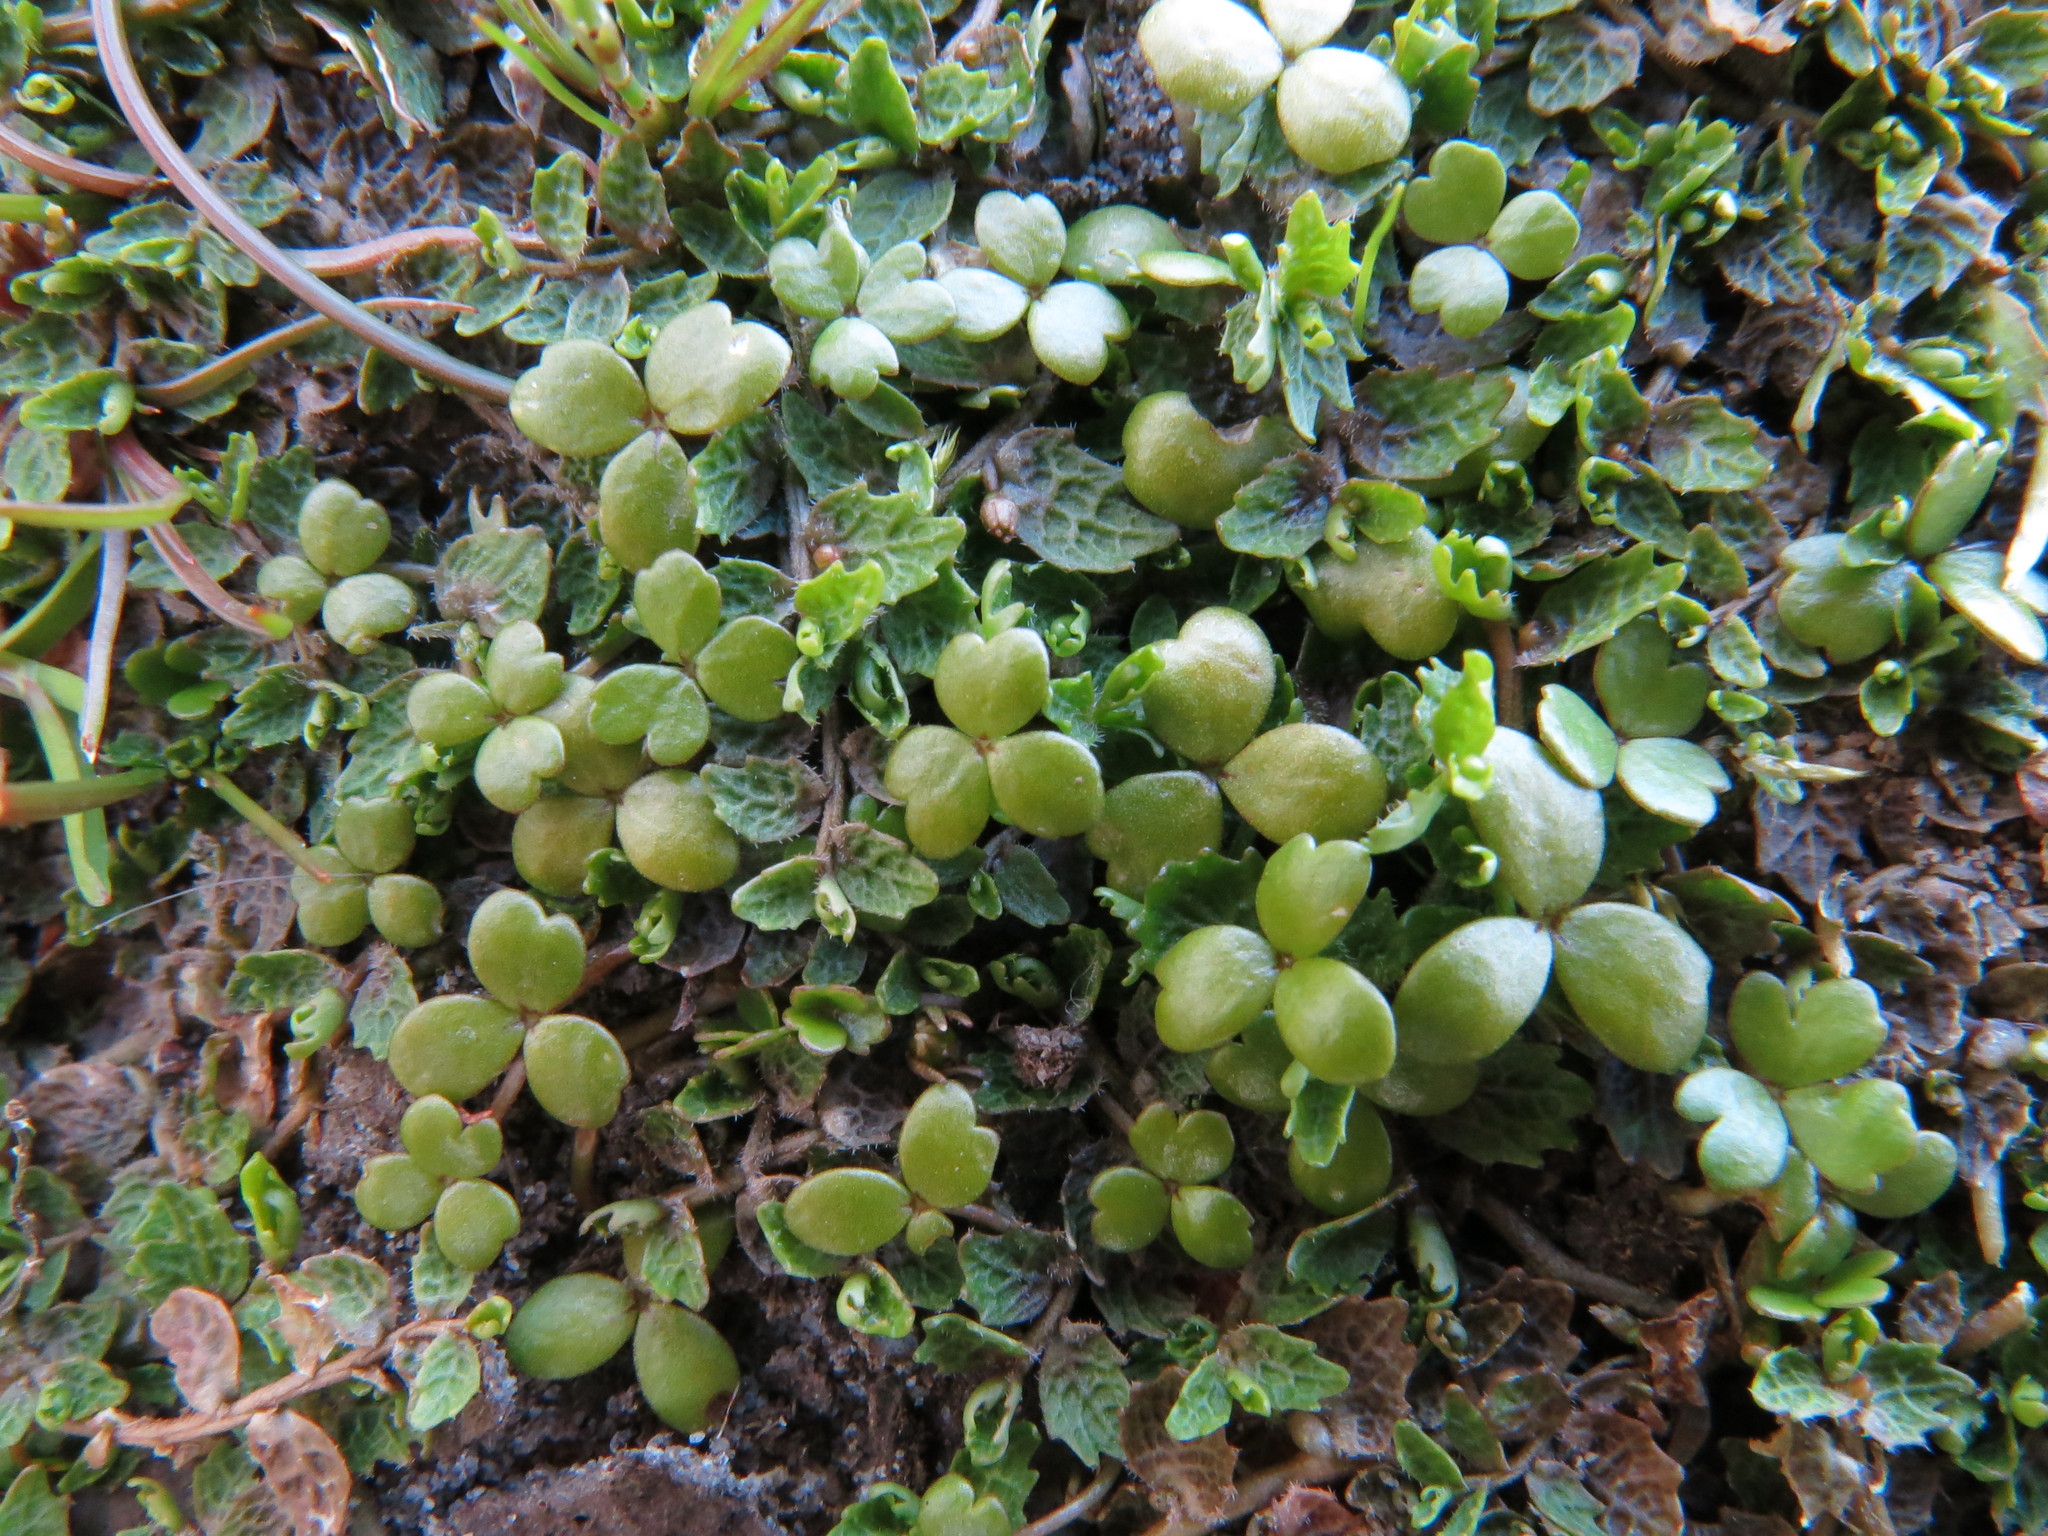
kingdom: Plantae
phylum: Tracheophyta
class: Magnoliopsida
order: Apiales
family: Araliaceae
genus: Hydrocotyle
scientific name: Hydrocotyle hydrophila
